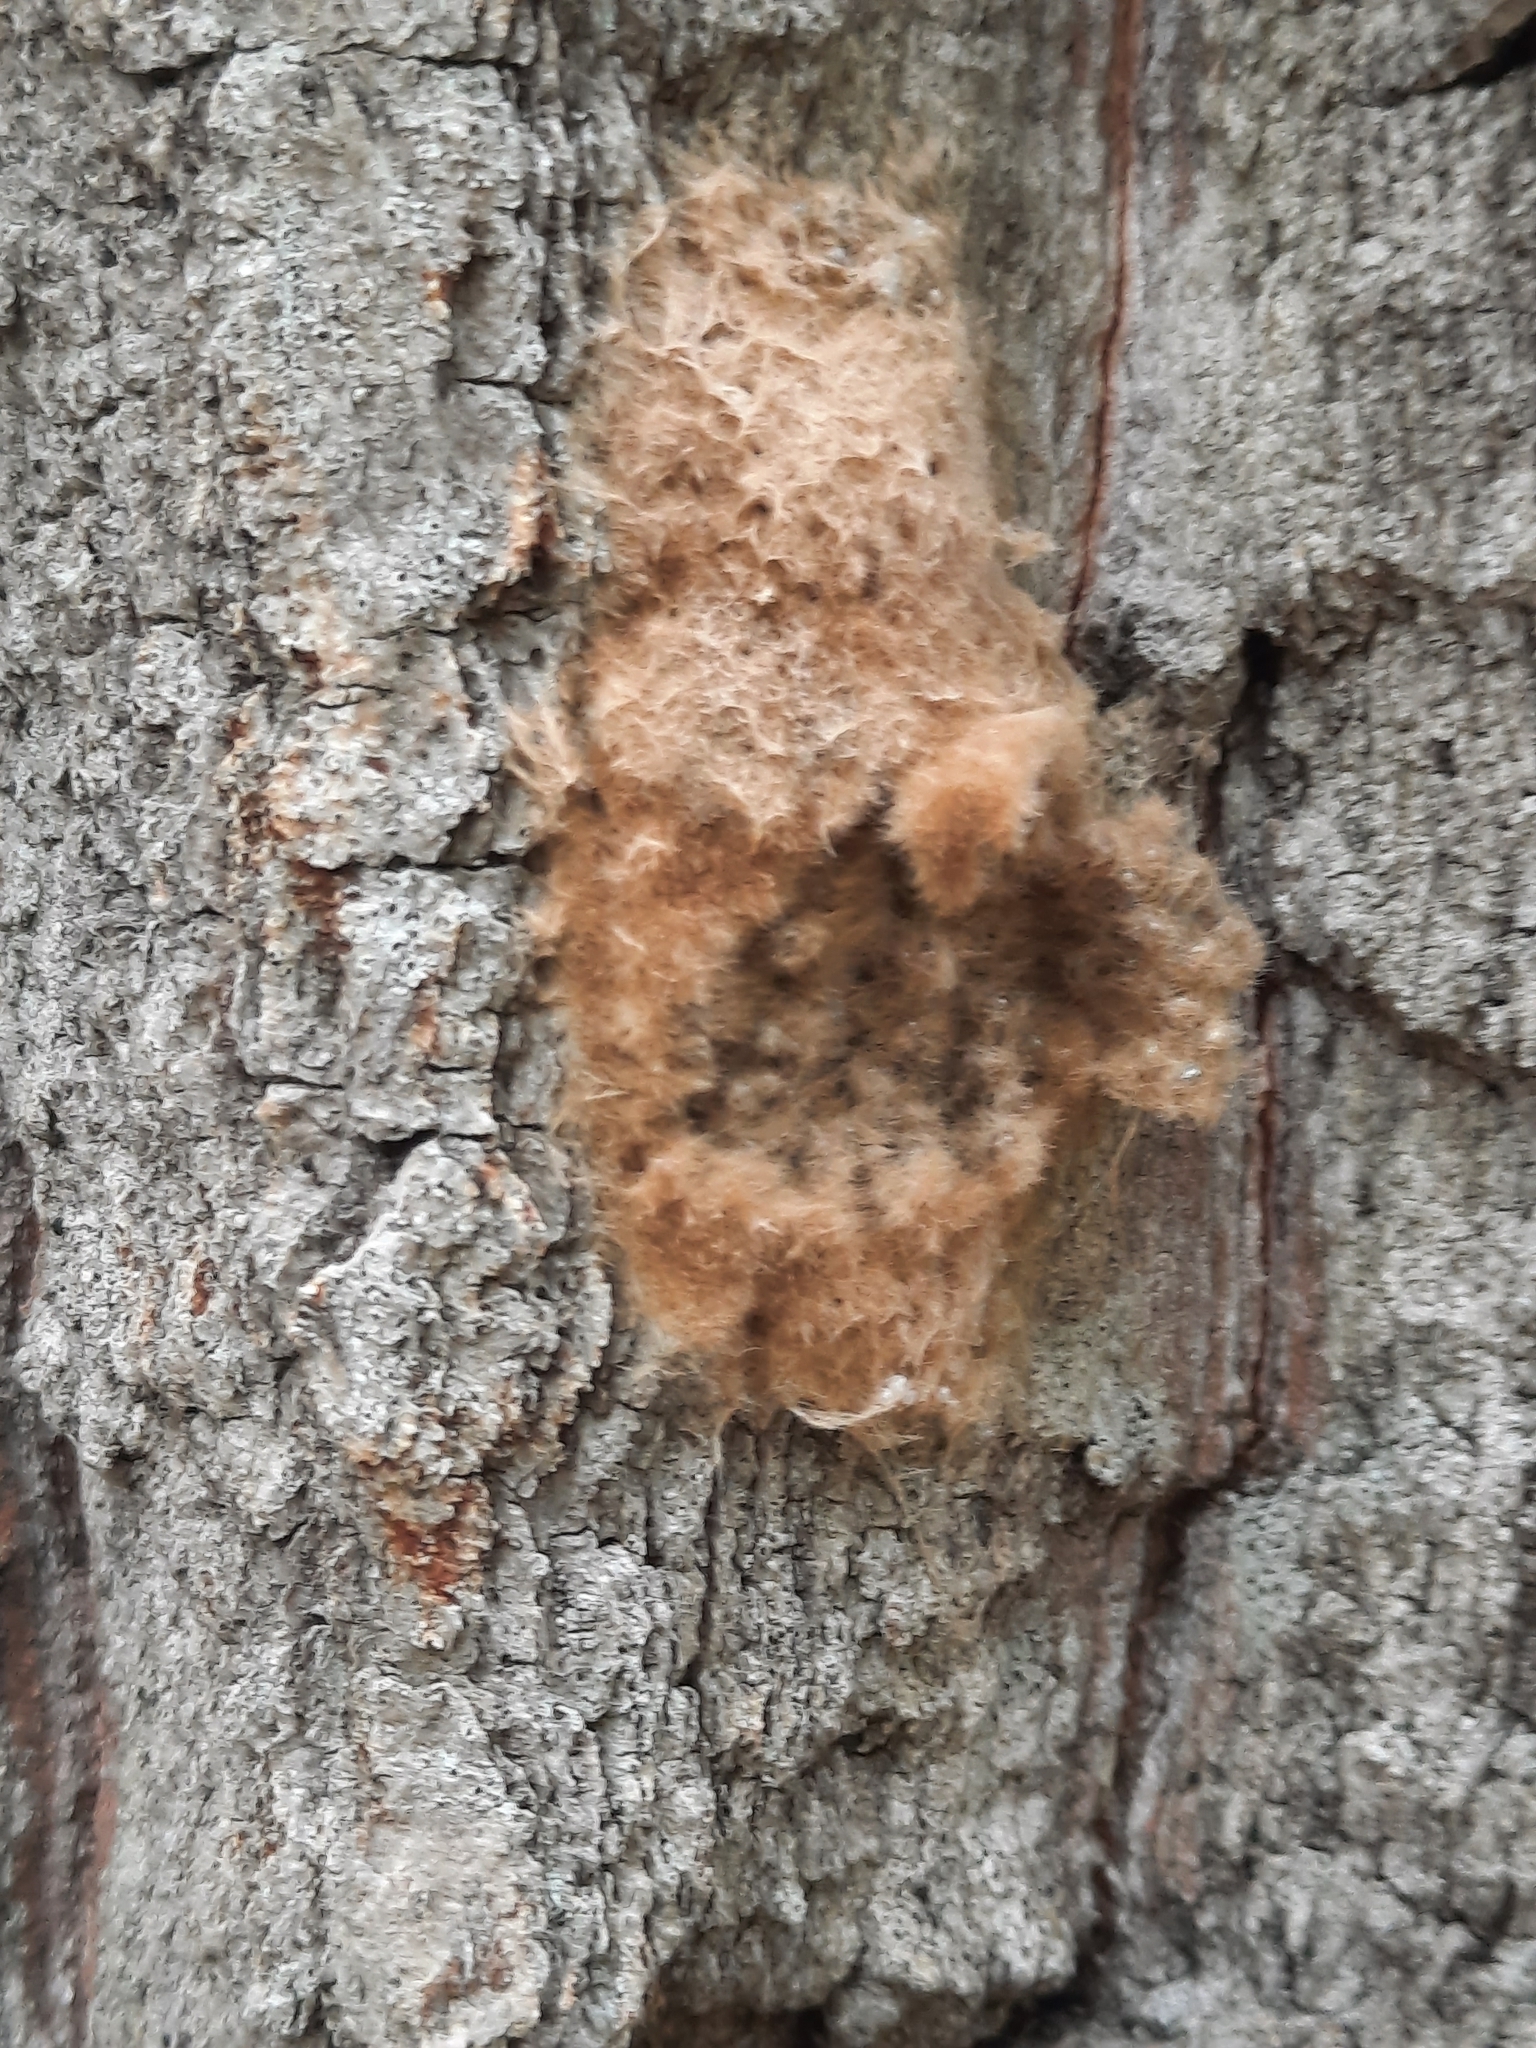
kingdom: Animalia
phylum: Arthropoda
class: Insecta
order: Lepidoptera
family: Erebidae
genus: Lymantria
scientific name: Lymantria dispar
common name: Gypsy moth
